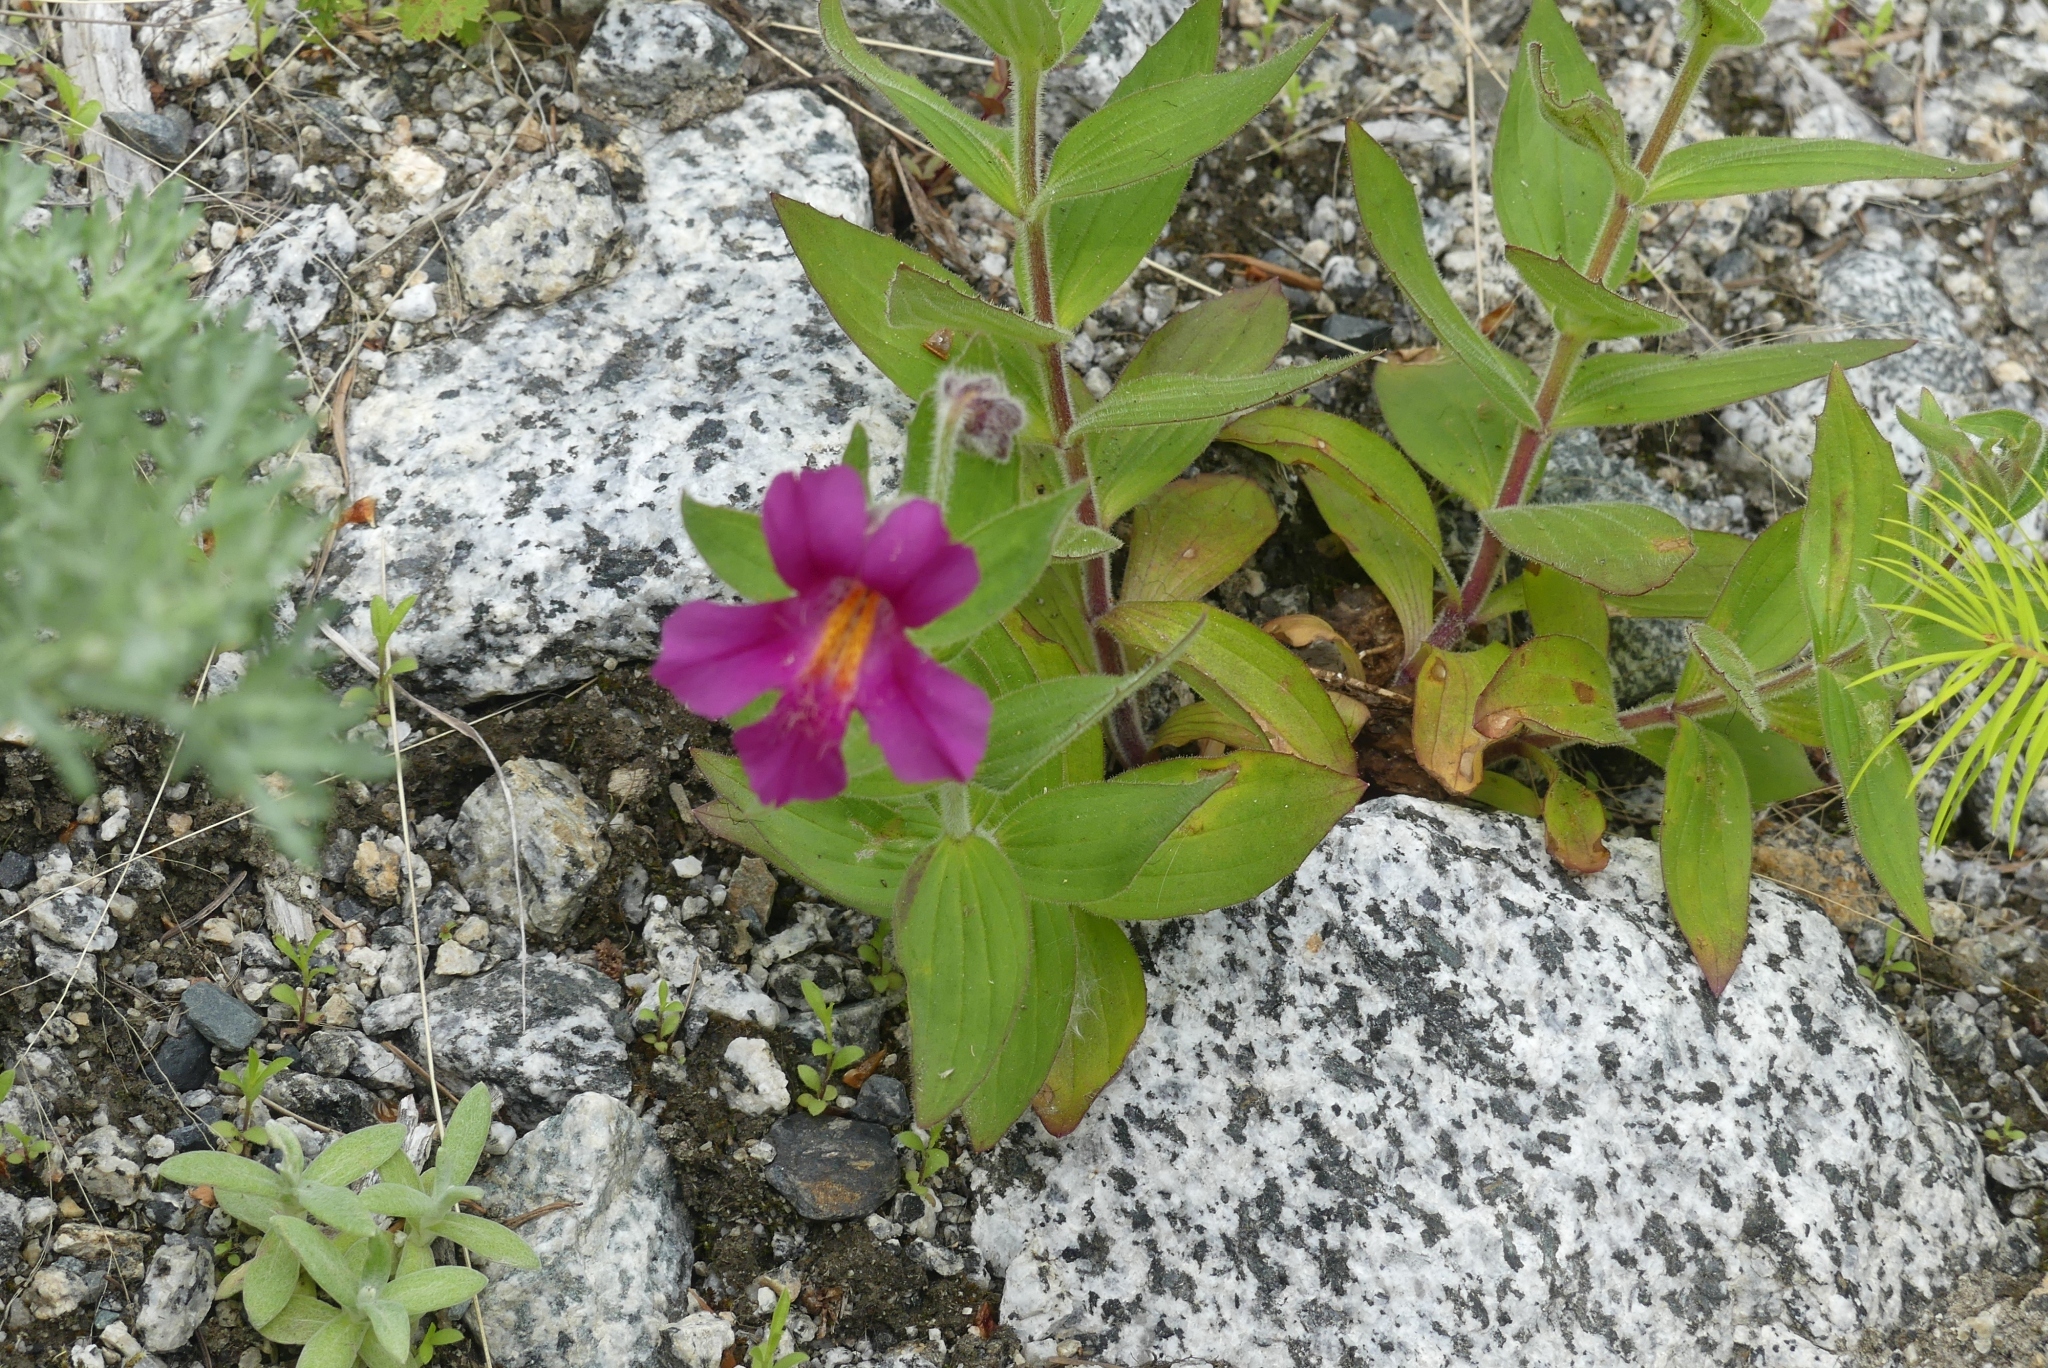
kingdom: Plantae
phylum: Tracheophyta
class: Magnoliopsida
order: Lamiales
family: Phrymaceae
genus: Erythranthe
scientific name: Erythranthe lewisii
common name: Lewis's monkey-flower
